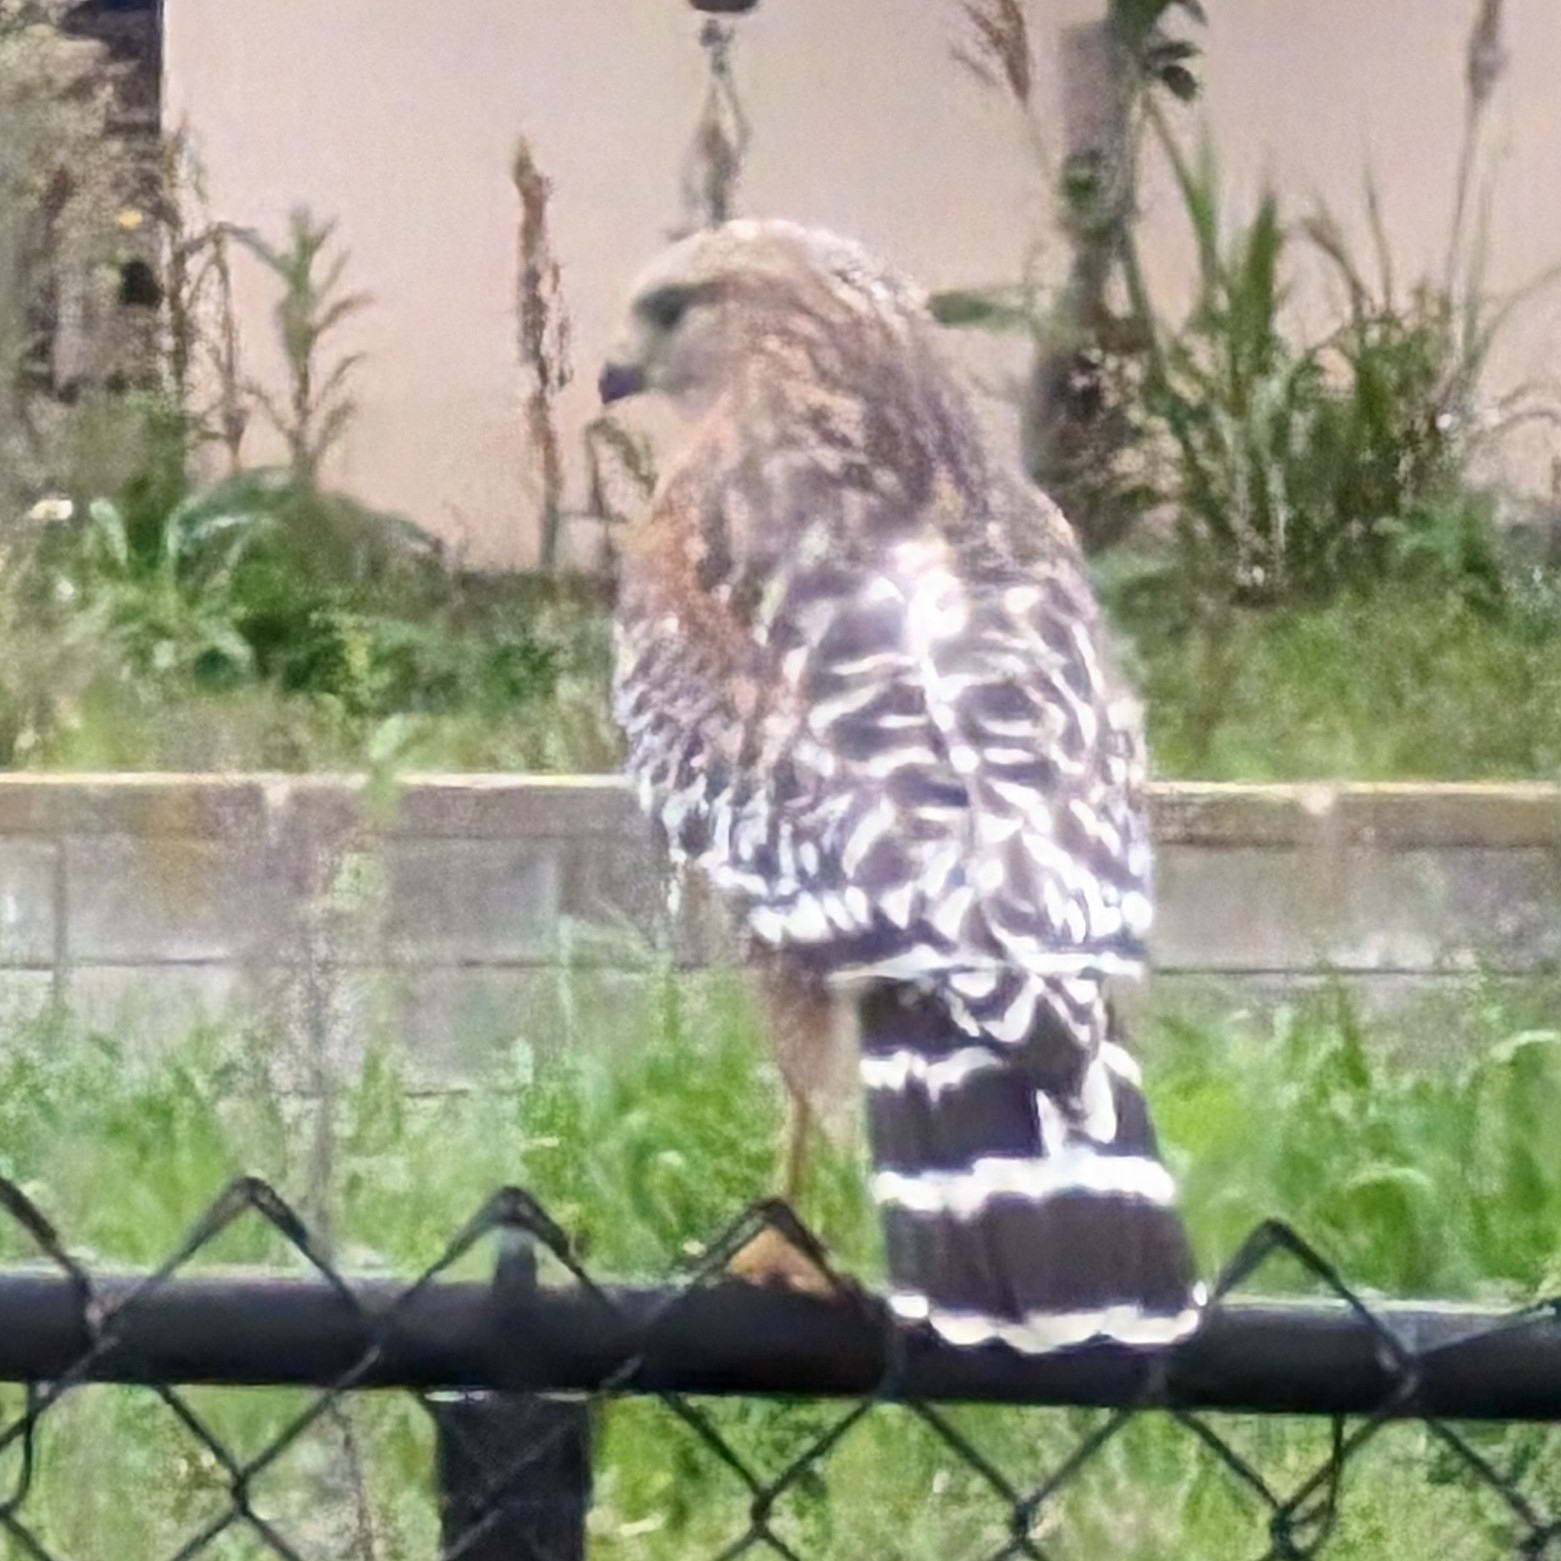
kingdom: Animalia
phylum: Chordata
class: Aves
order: Accipitriformes
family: Accipitridae
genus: Buteo
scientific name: Buteo lineatus
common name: Red-shouldered hawk
